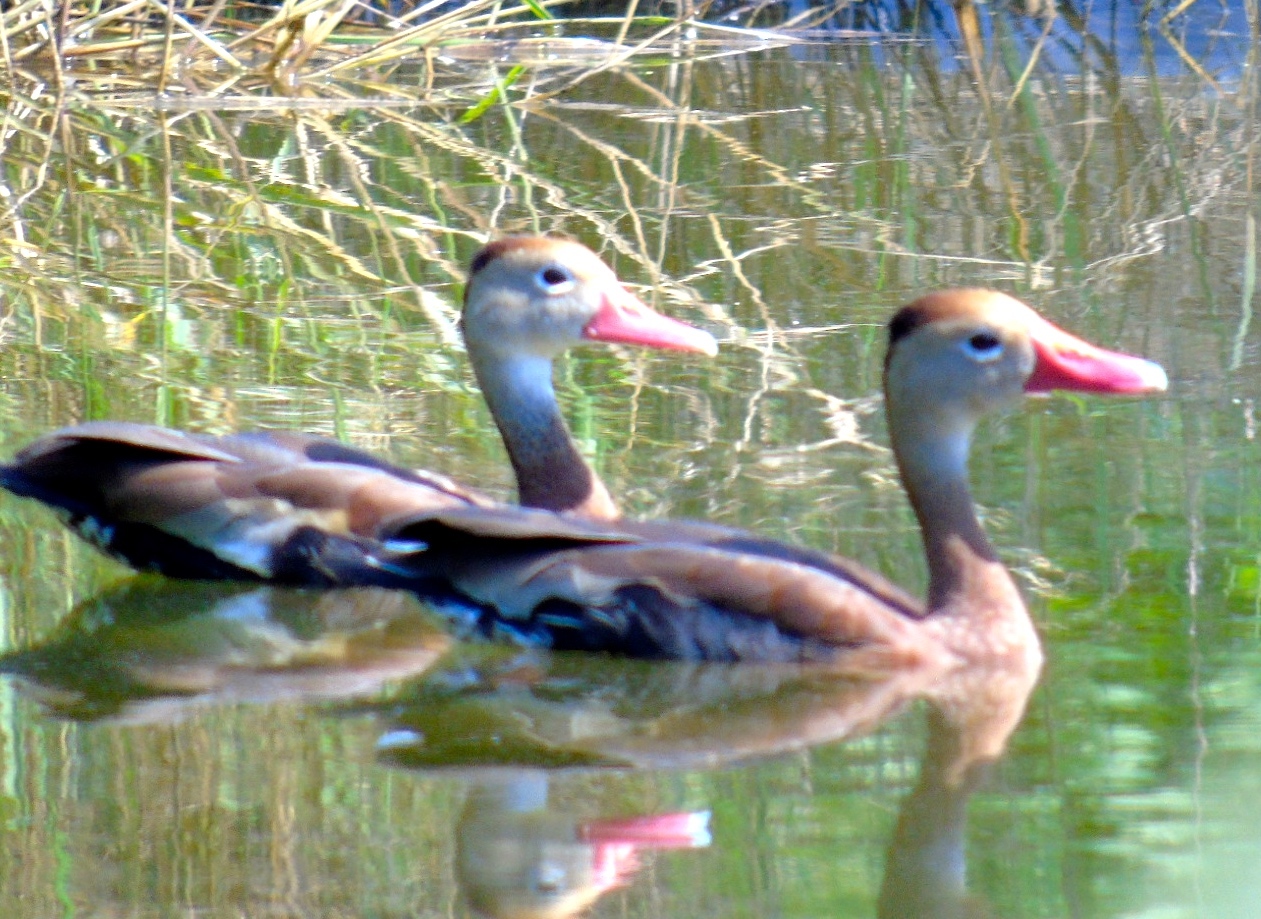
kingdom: Animalia
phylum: Chordata
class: Aves
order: Anseriformes
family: Anatidae
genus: Dendrocygna
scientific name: Dendrocygna autumnalis
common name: Black-bellied whistling duck
